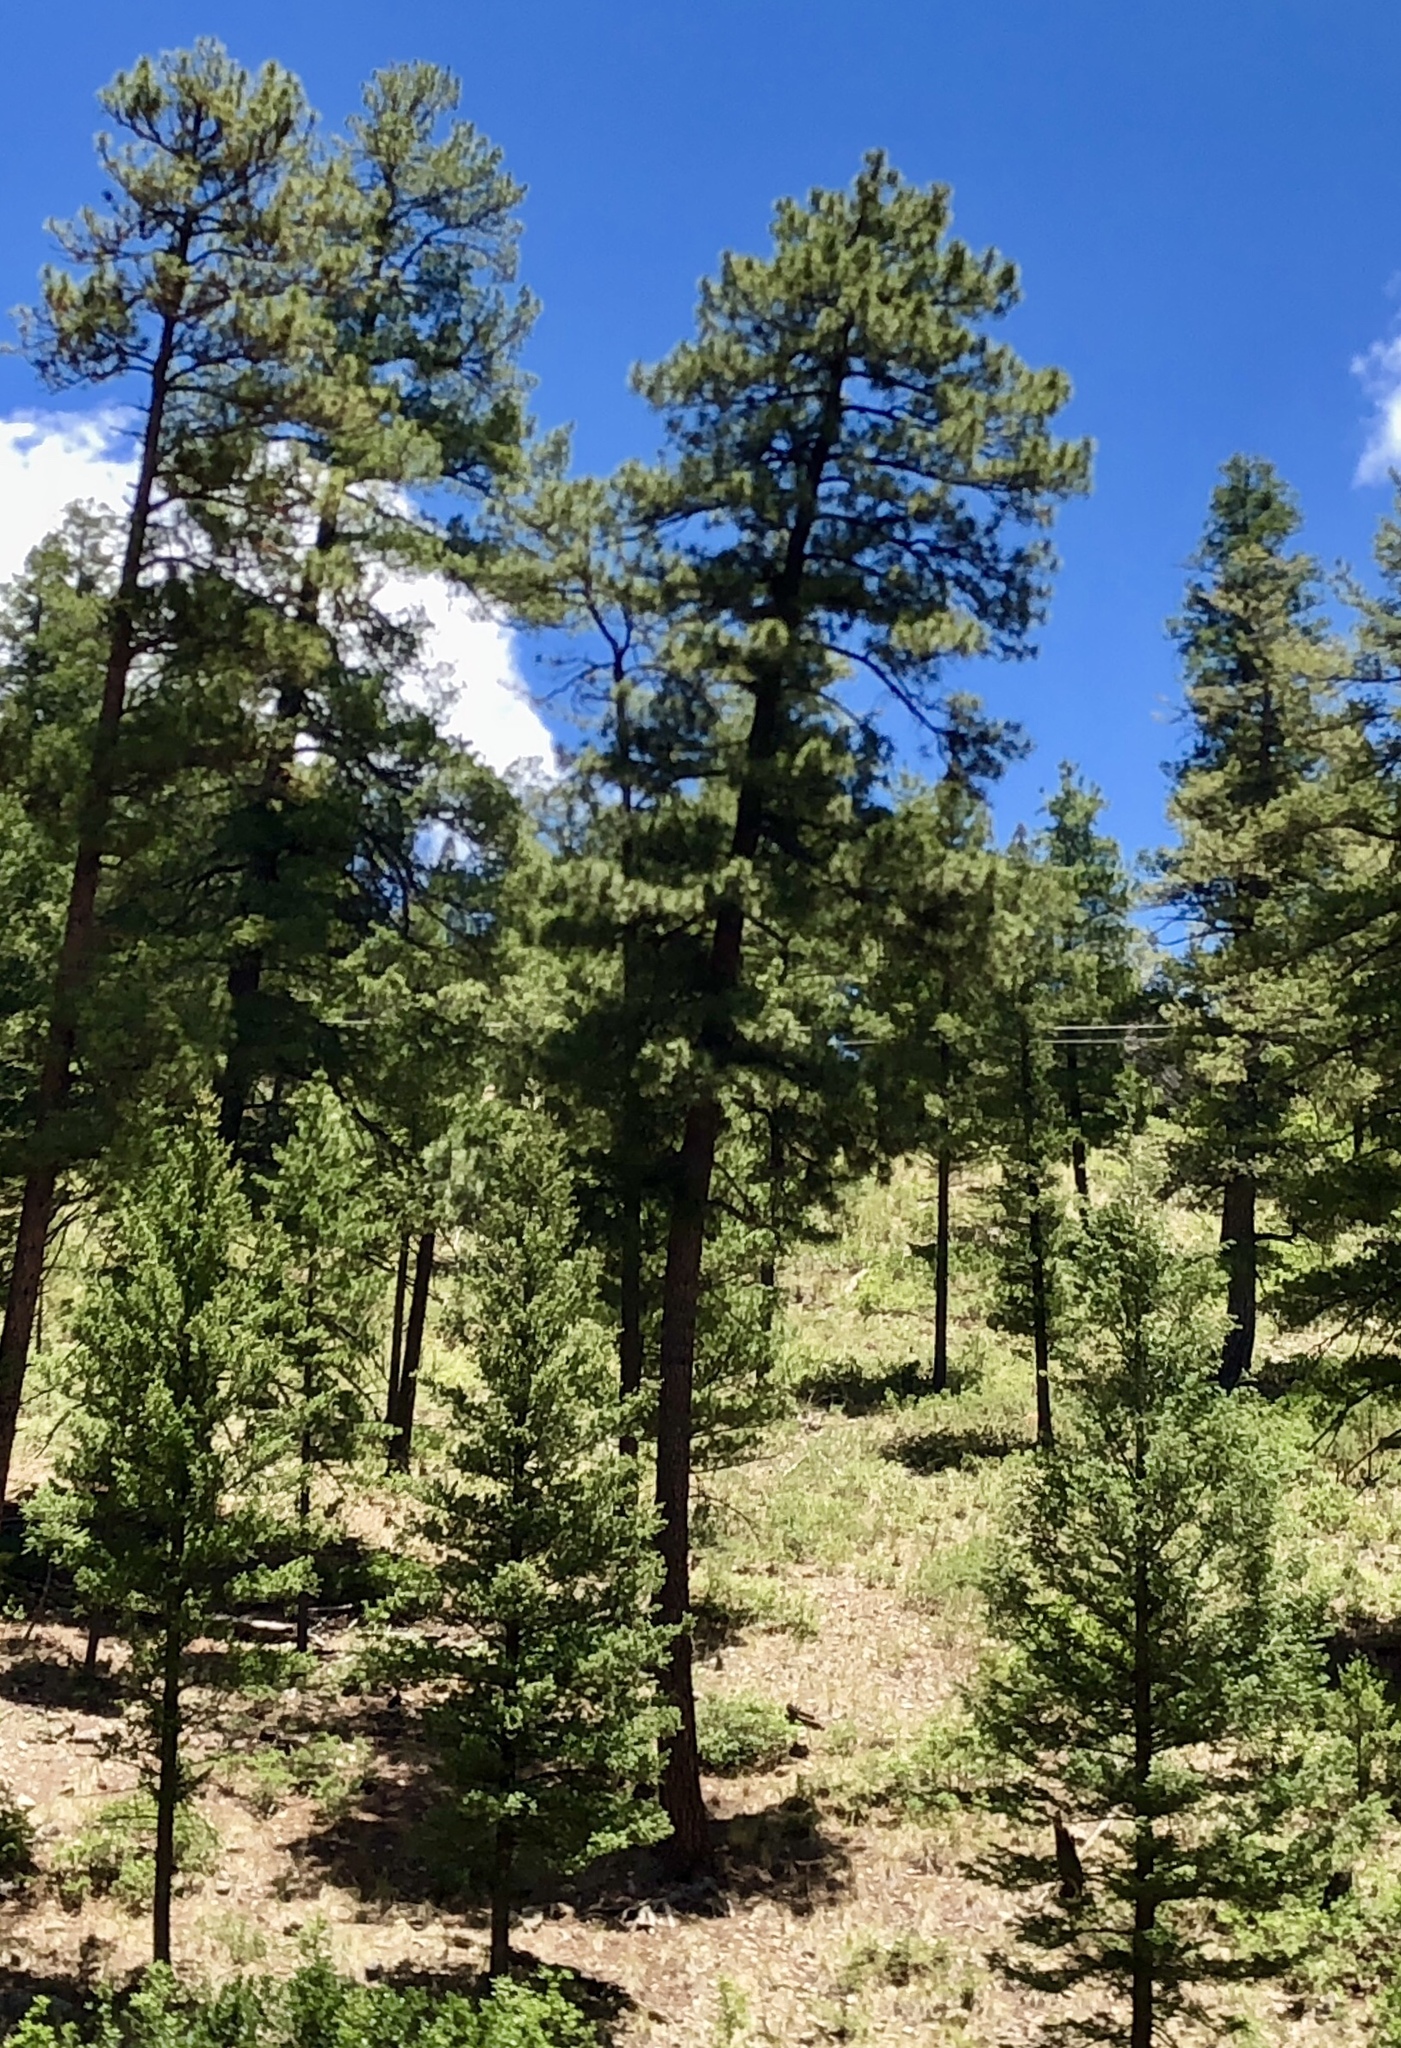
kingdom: Plantae
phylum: Tracheophyta
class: Pinopsida
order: Pinales
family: Pinaceae
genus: Pinus
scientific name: Pinus ponderosa
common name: Western yellow-pine
